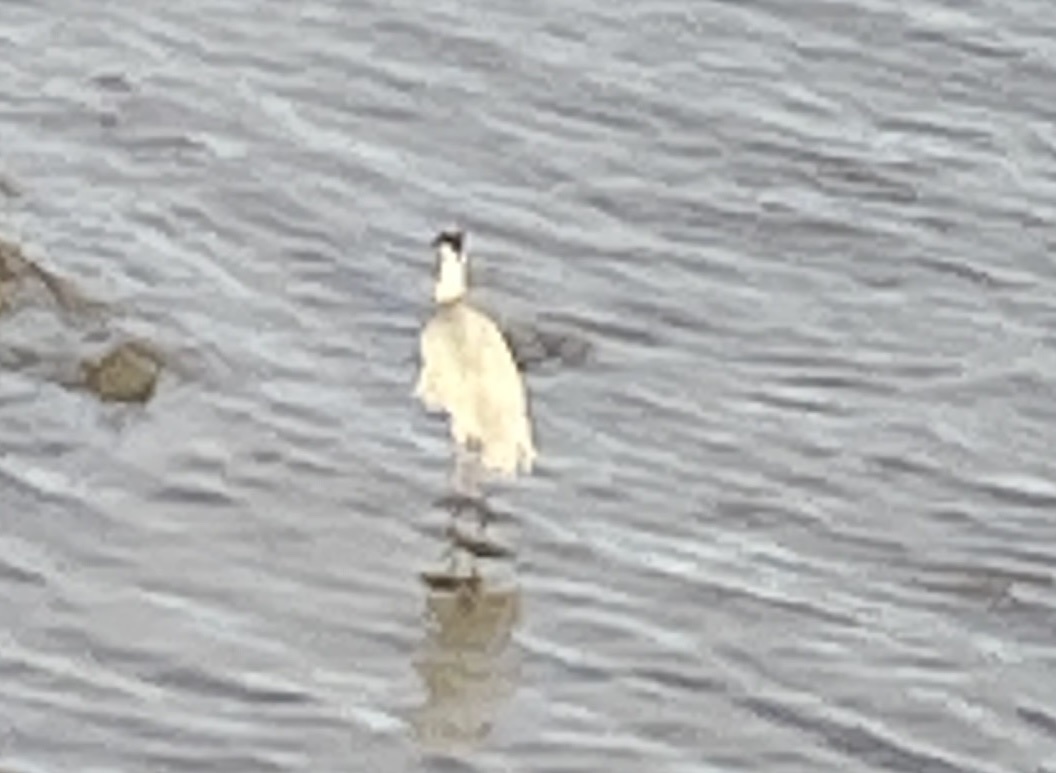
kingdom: Animalia
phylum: Chordata
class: Aves
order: Pelecaniformes
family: Ardeidae
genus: Ardea
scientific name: Ardea cinerea
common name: Grey heron
